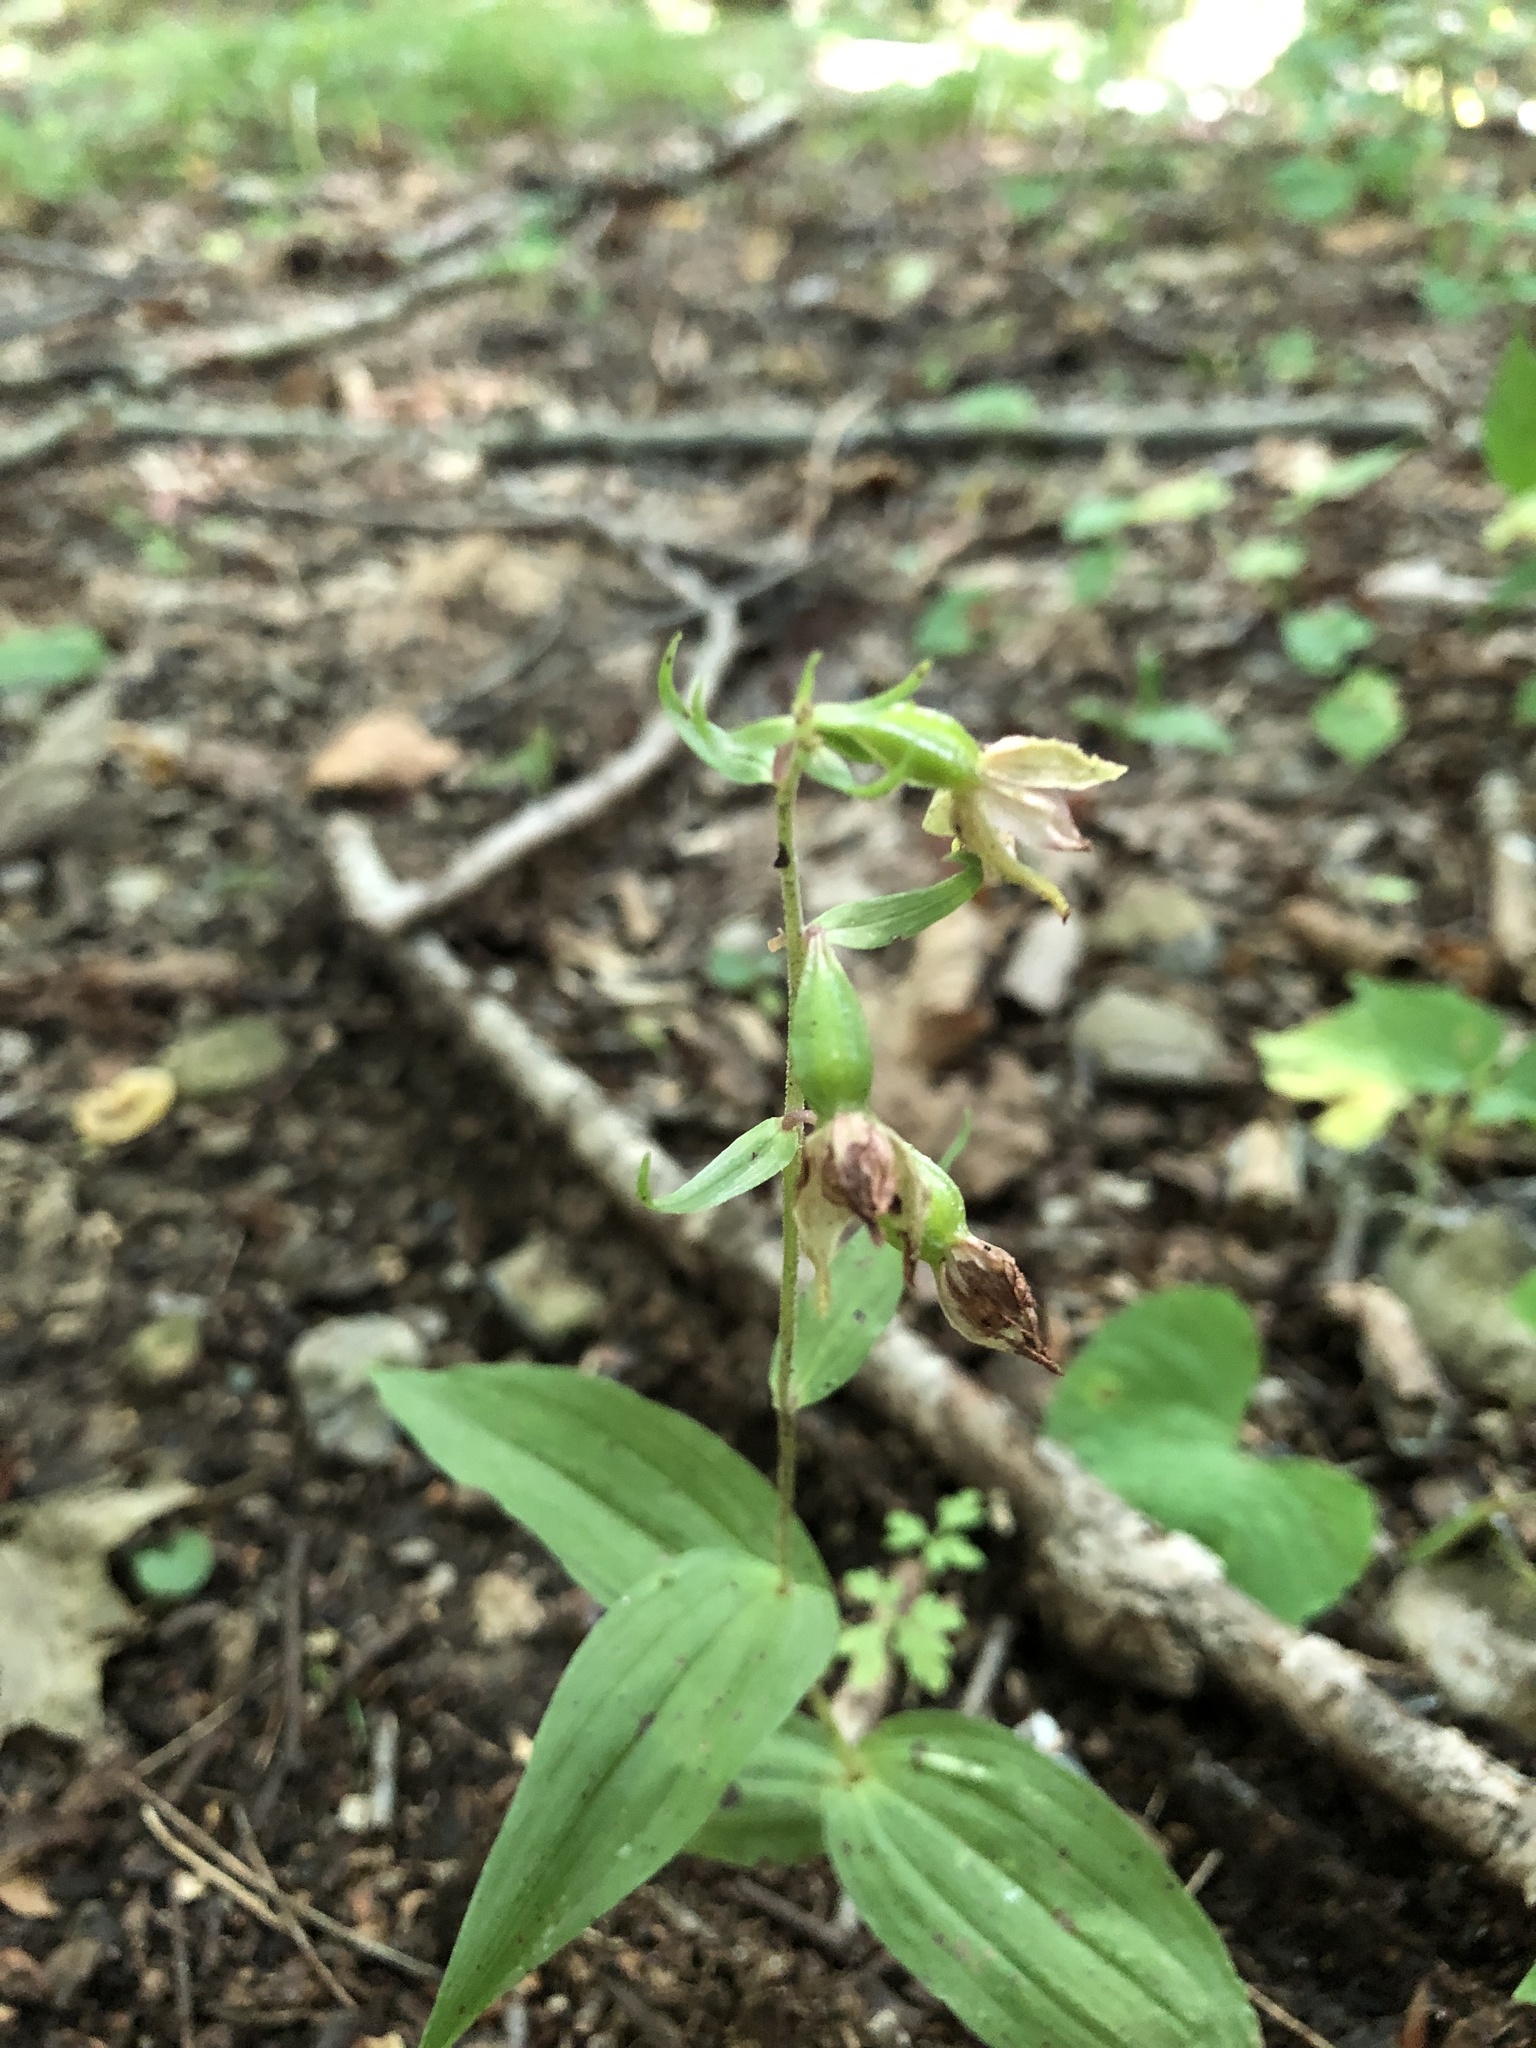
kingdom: Plantae
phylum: Tracheophyta
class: Liliopsida
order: Asparagales
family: Orchidaceae
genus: Epipactis
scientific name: Epipactis helleborine
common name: Broad-leaved helleborine
